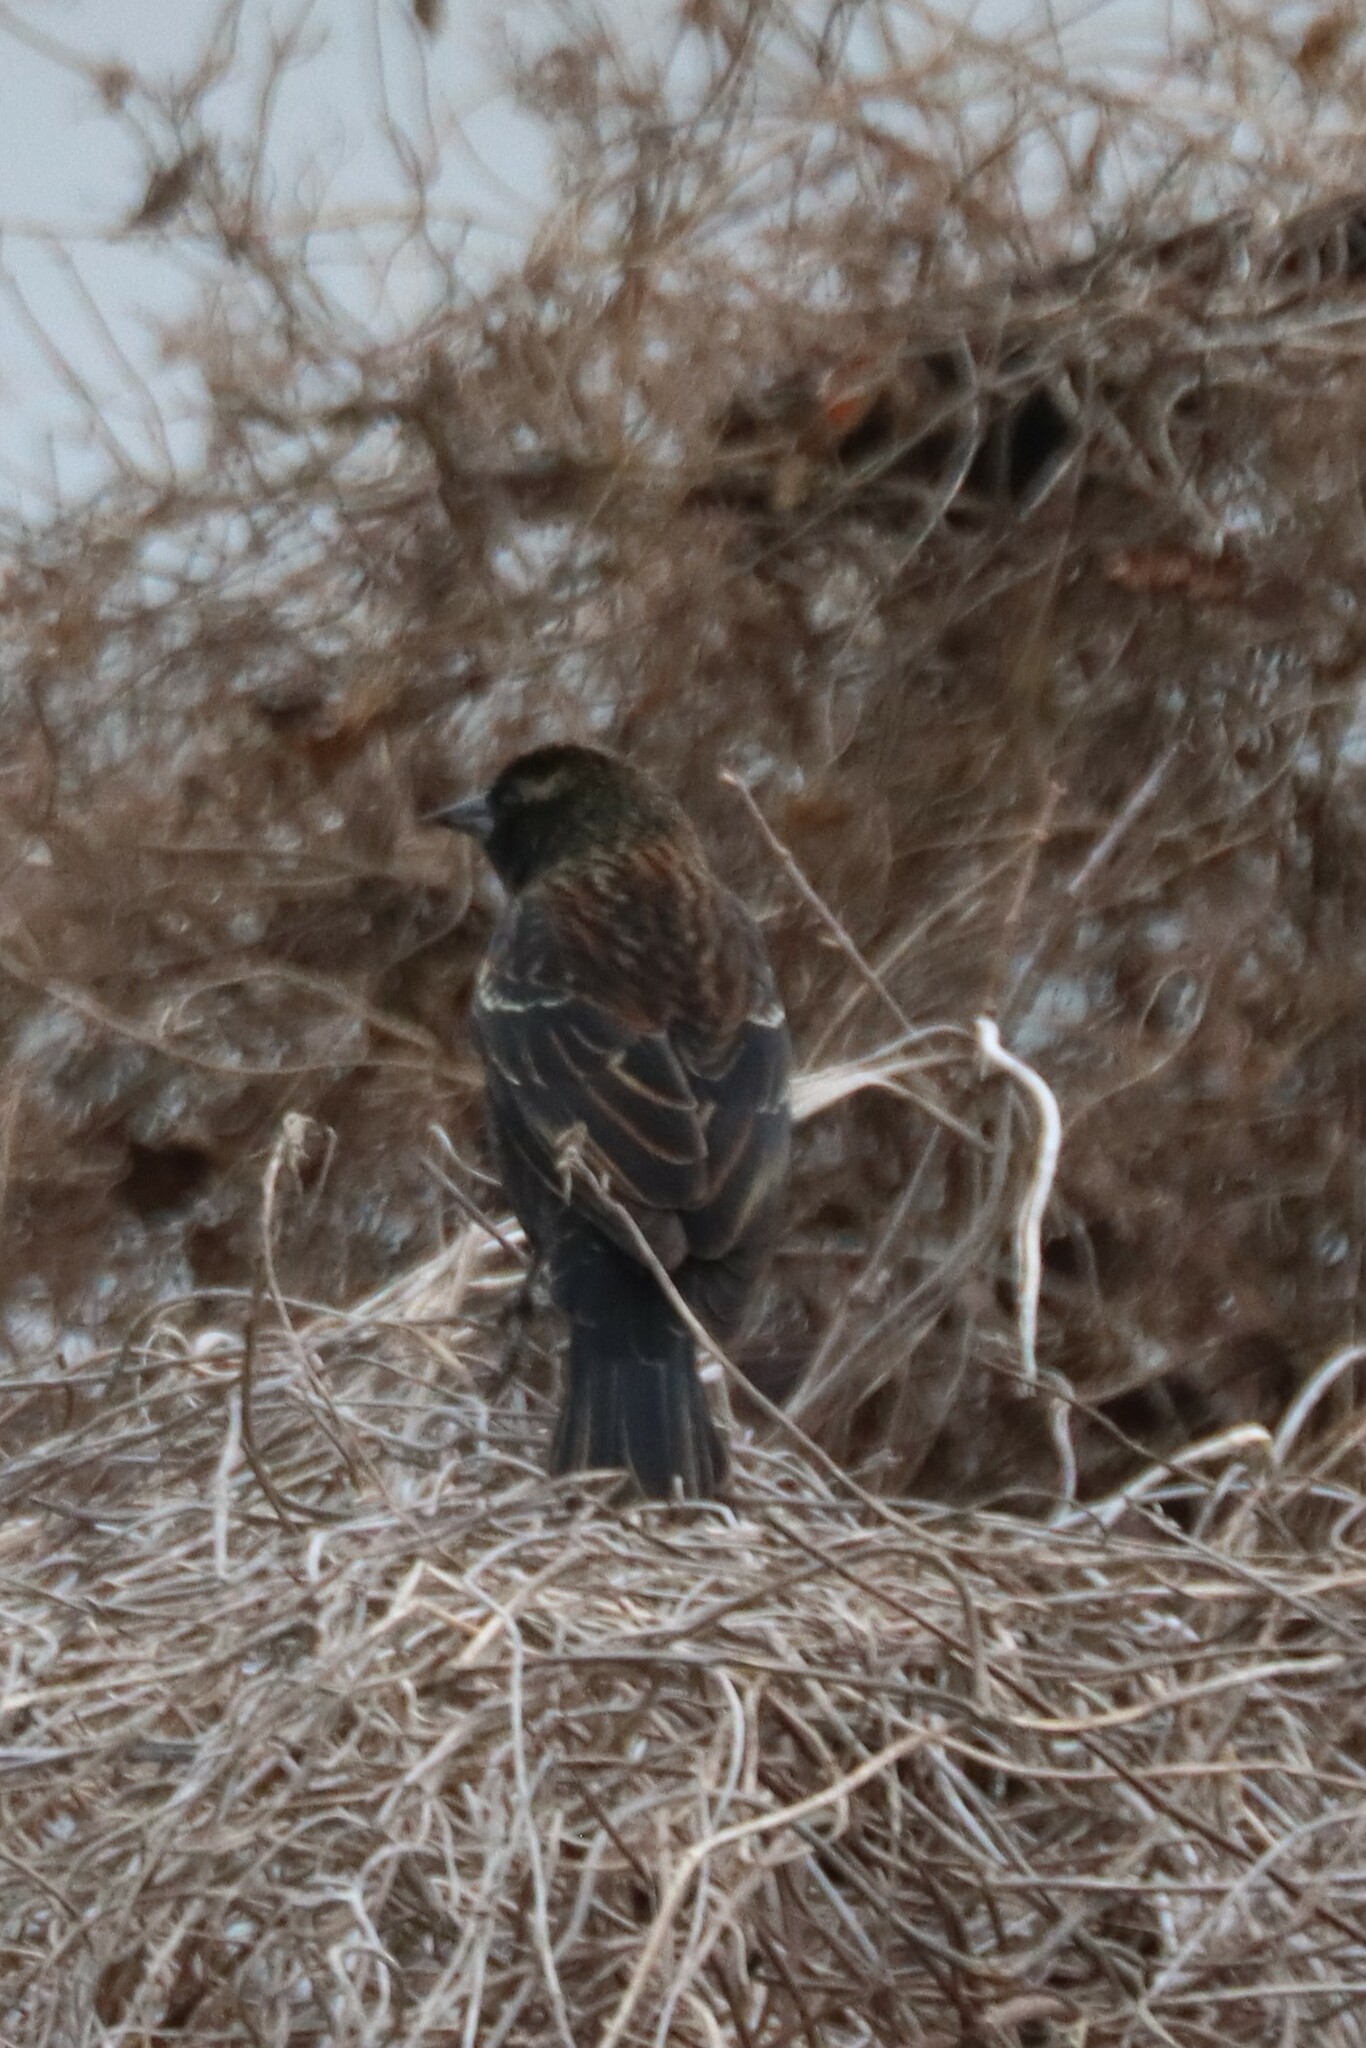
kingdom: Animalia
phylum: Chordata
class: Aves
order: Passeriformes
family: Icteridae
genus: Agelaius
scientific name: Agelaius phoeniceus
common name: Red-winged blackbird
